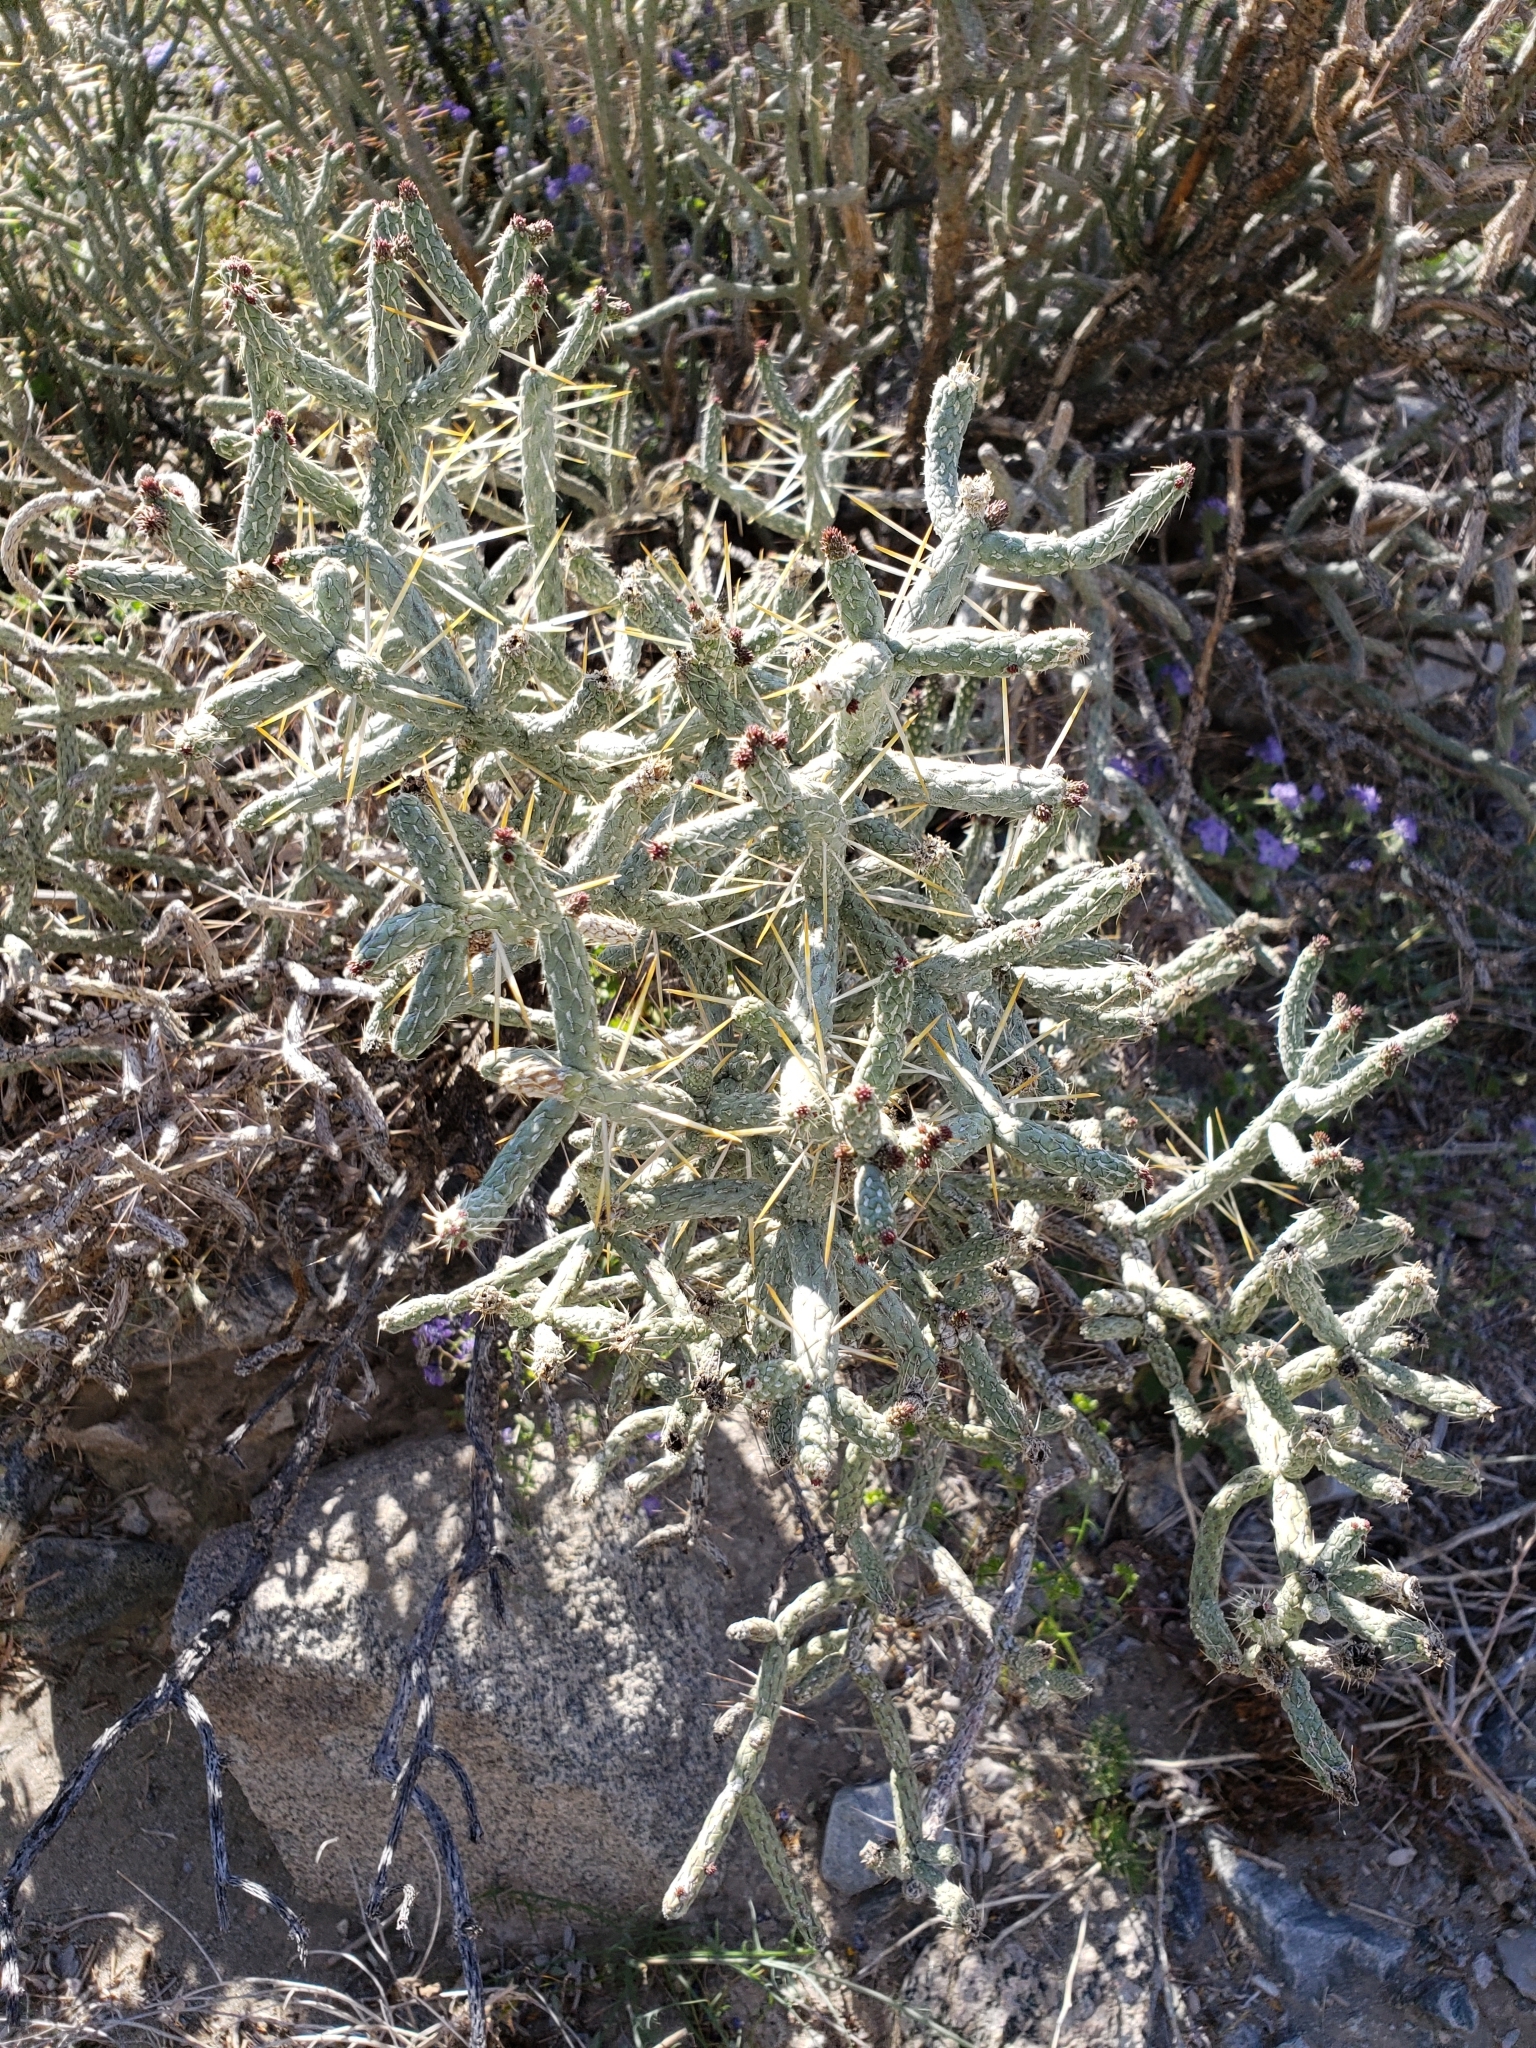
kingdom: Plantae
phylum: Tracheophyta
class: Magnoliopsida
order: Caryophyllales
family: Cactaceae
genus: Cylindropuntia
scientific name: Cylindropuntia ramosissima
